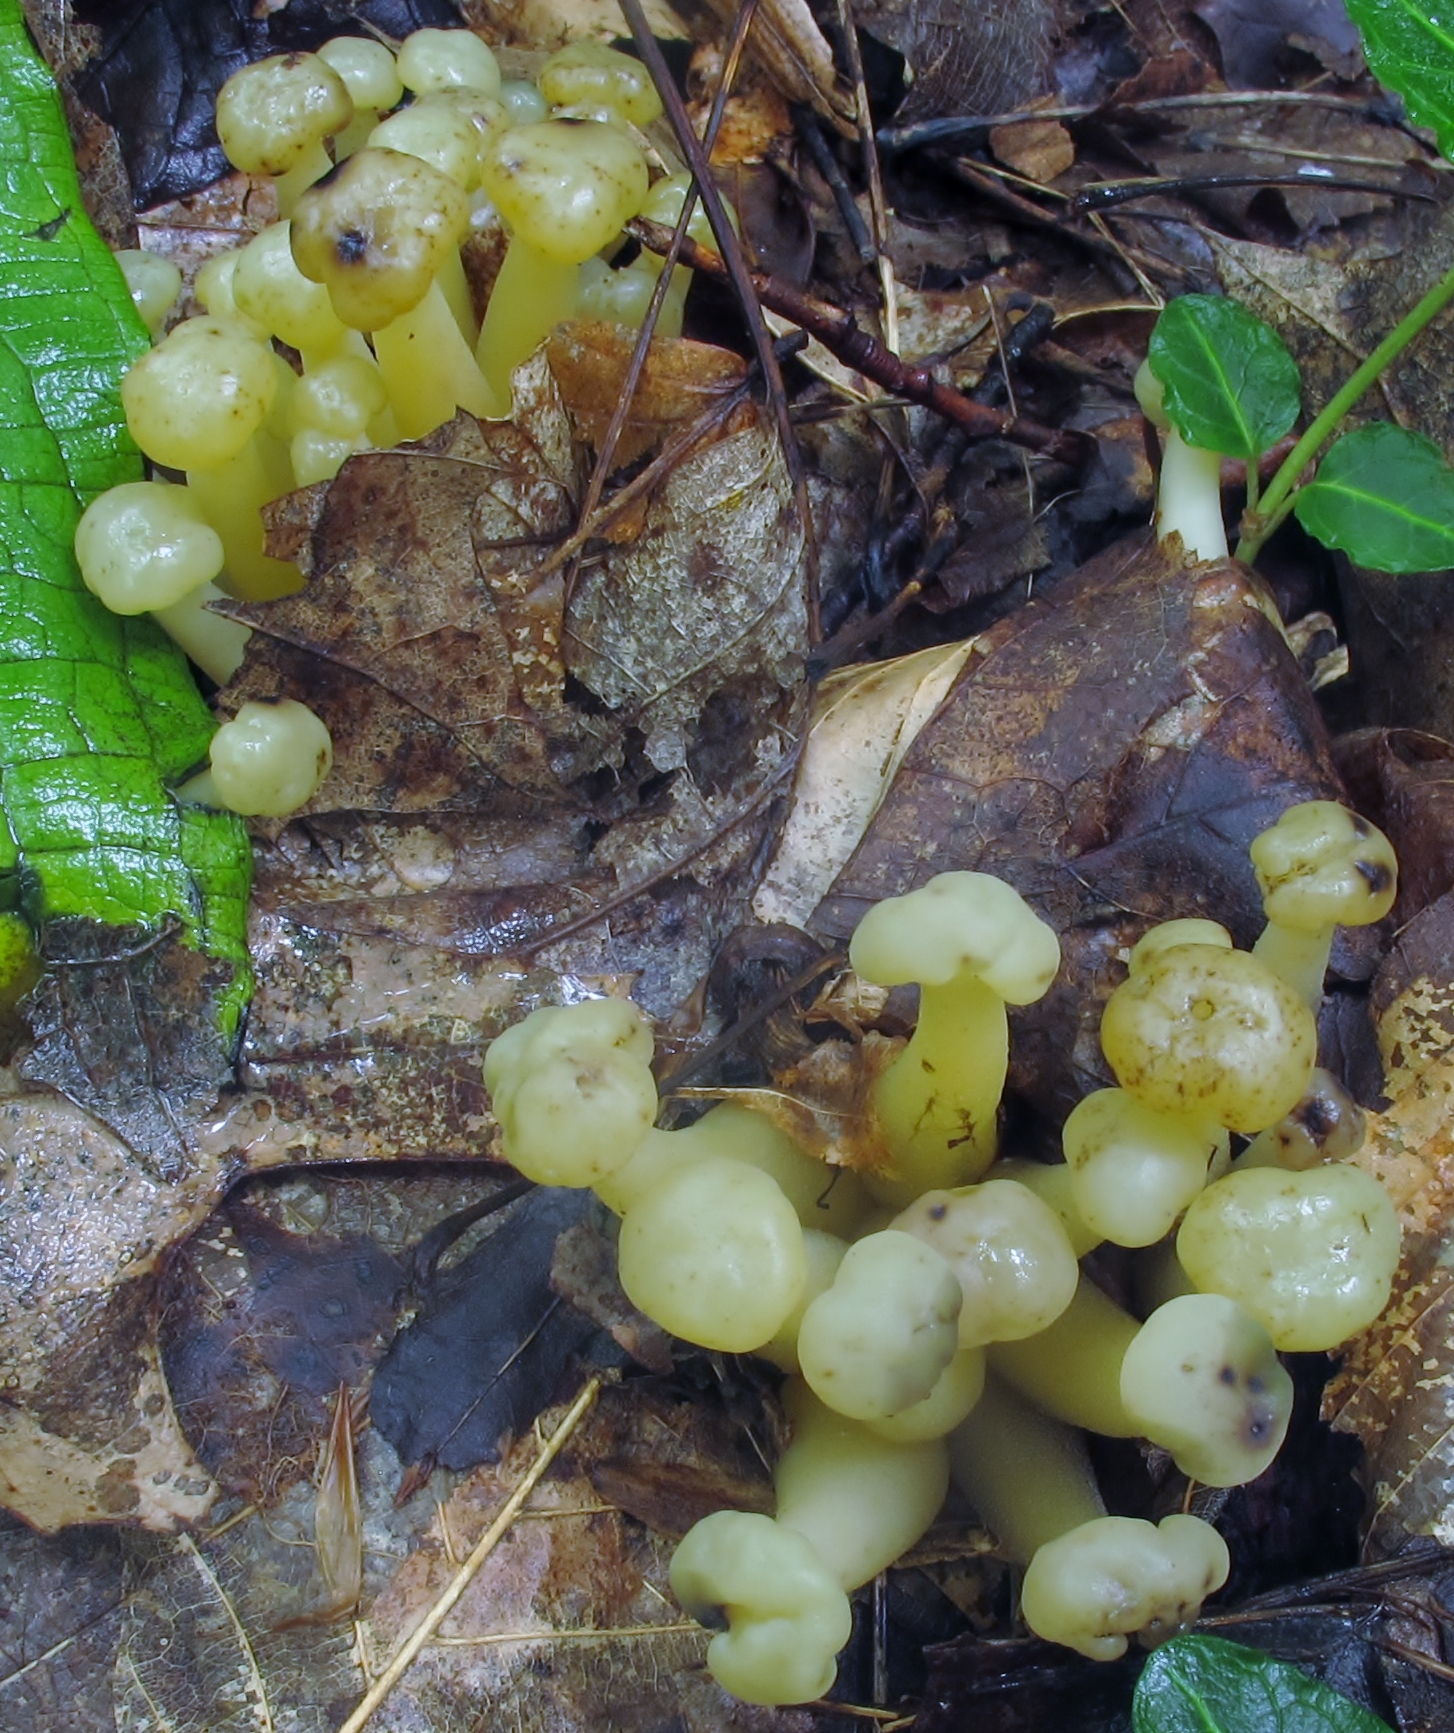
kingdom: Fungi
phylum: Ascomycota
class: Leotiomycetes
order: Leotiales
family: Leotiaceae
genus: Leotia
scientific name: Leotia lubrica
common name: Jellybaby
